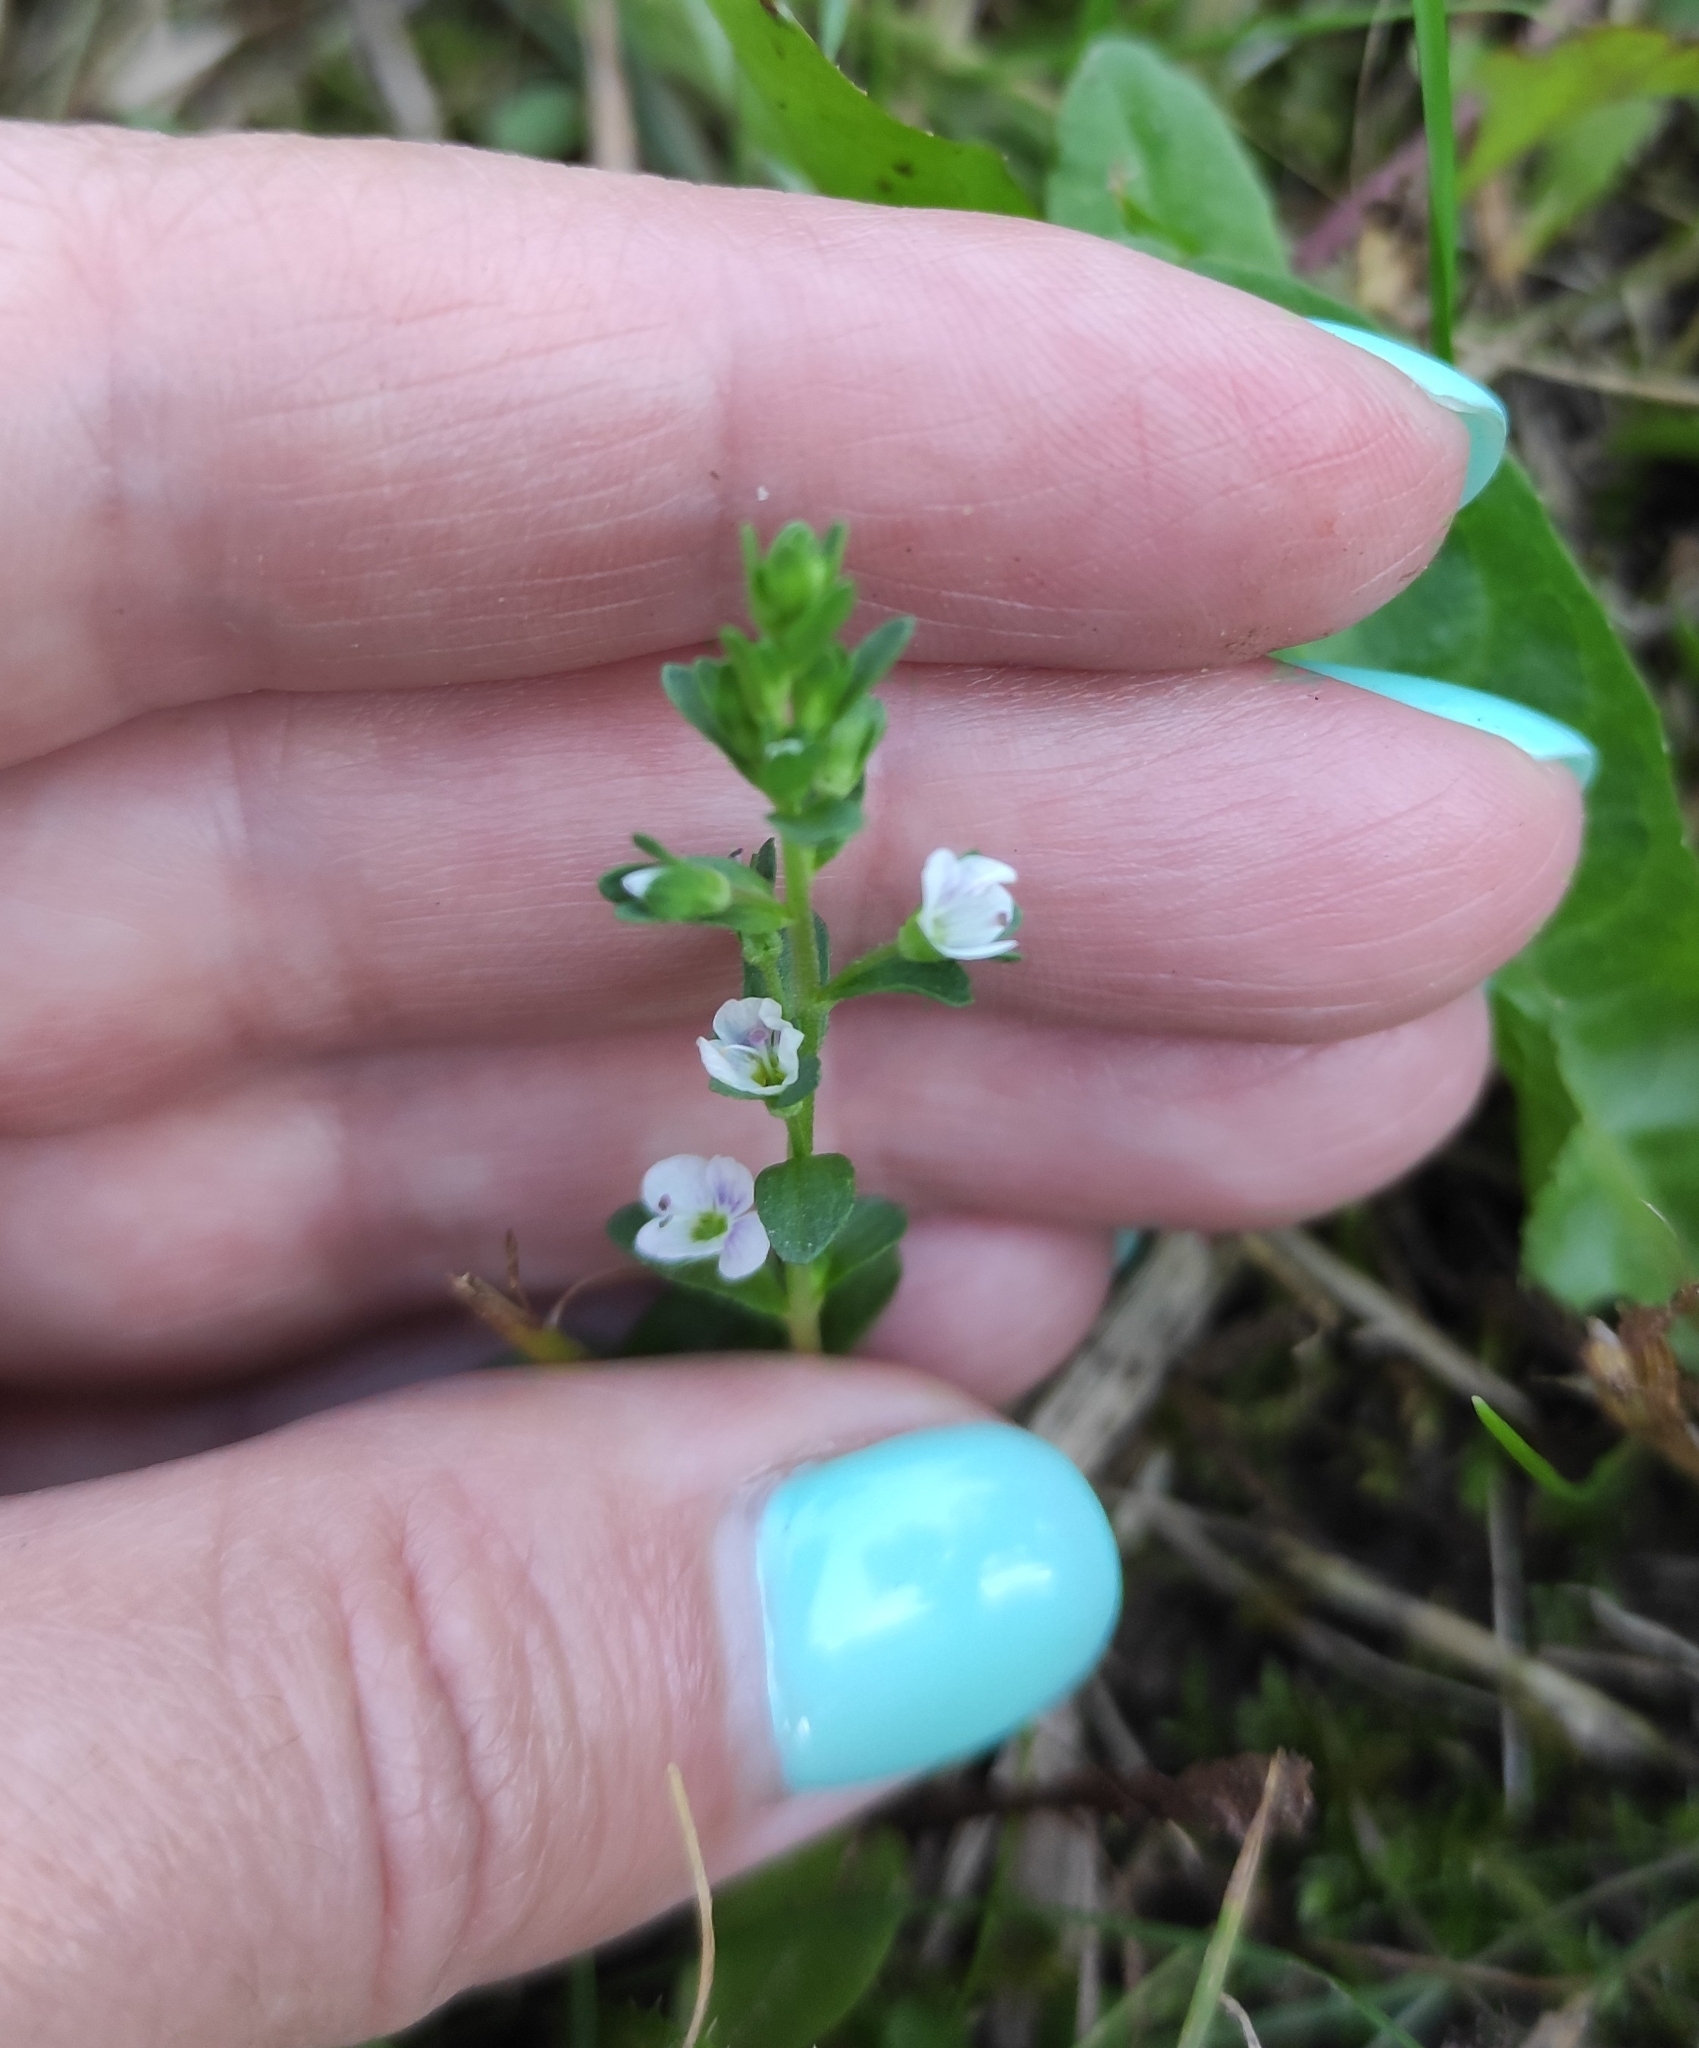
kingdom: Plantae
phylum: Tracheophyta
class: Magnoliopsida
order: Lamiales
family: Plantaginaceae
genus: Veronica
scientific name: Veronica serpyllifolia
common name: Thyme-leaved speedwell
